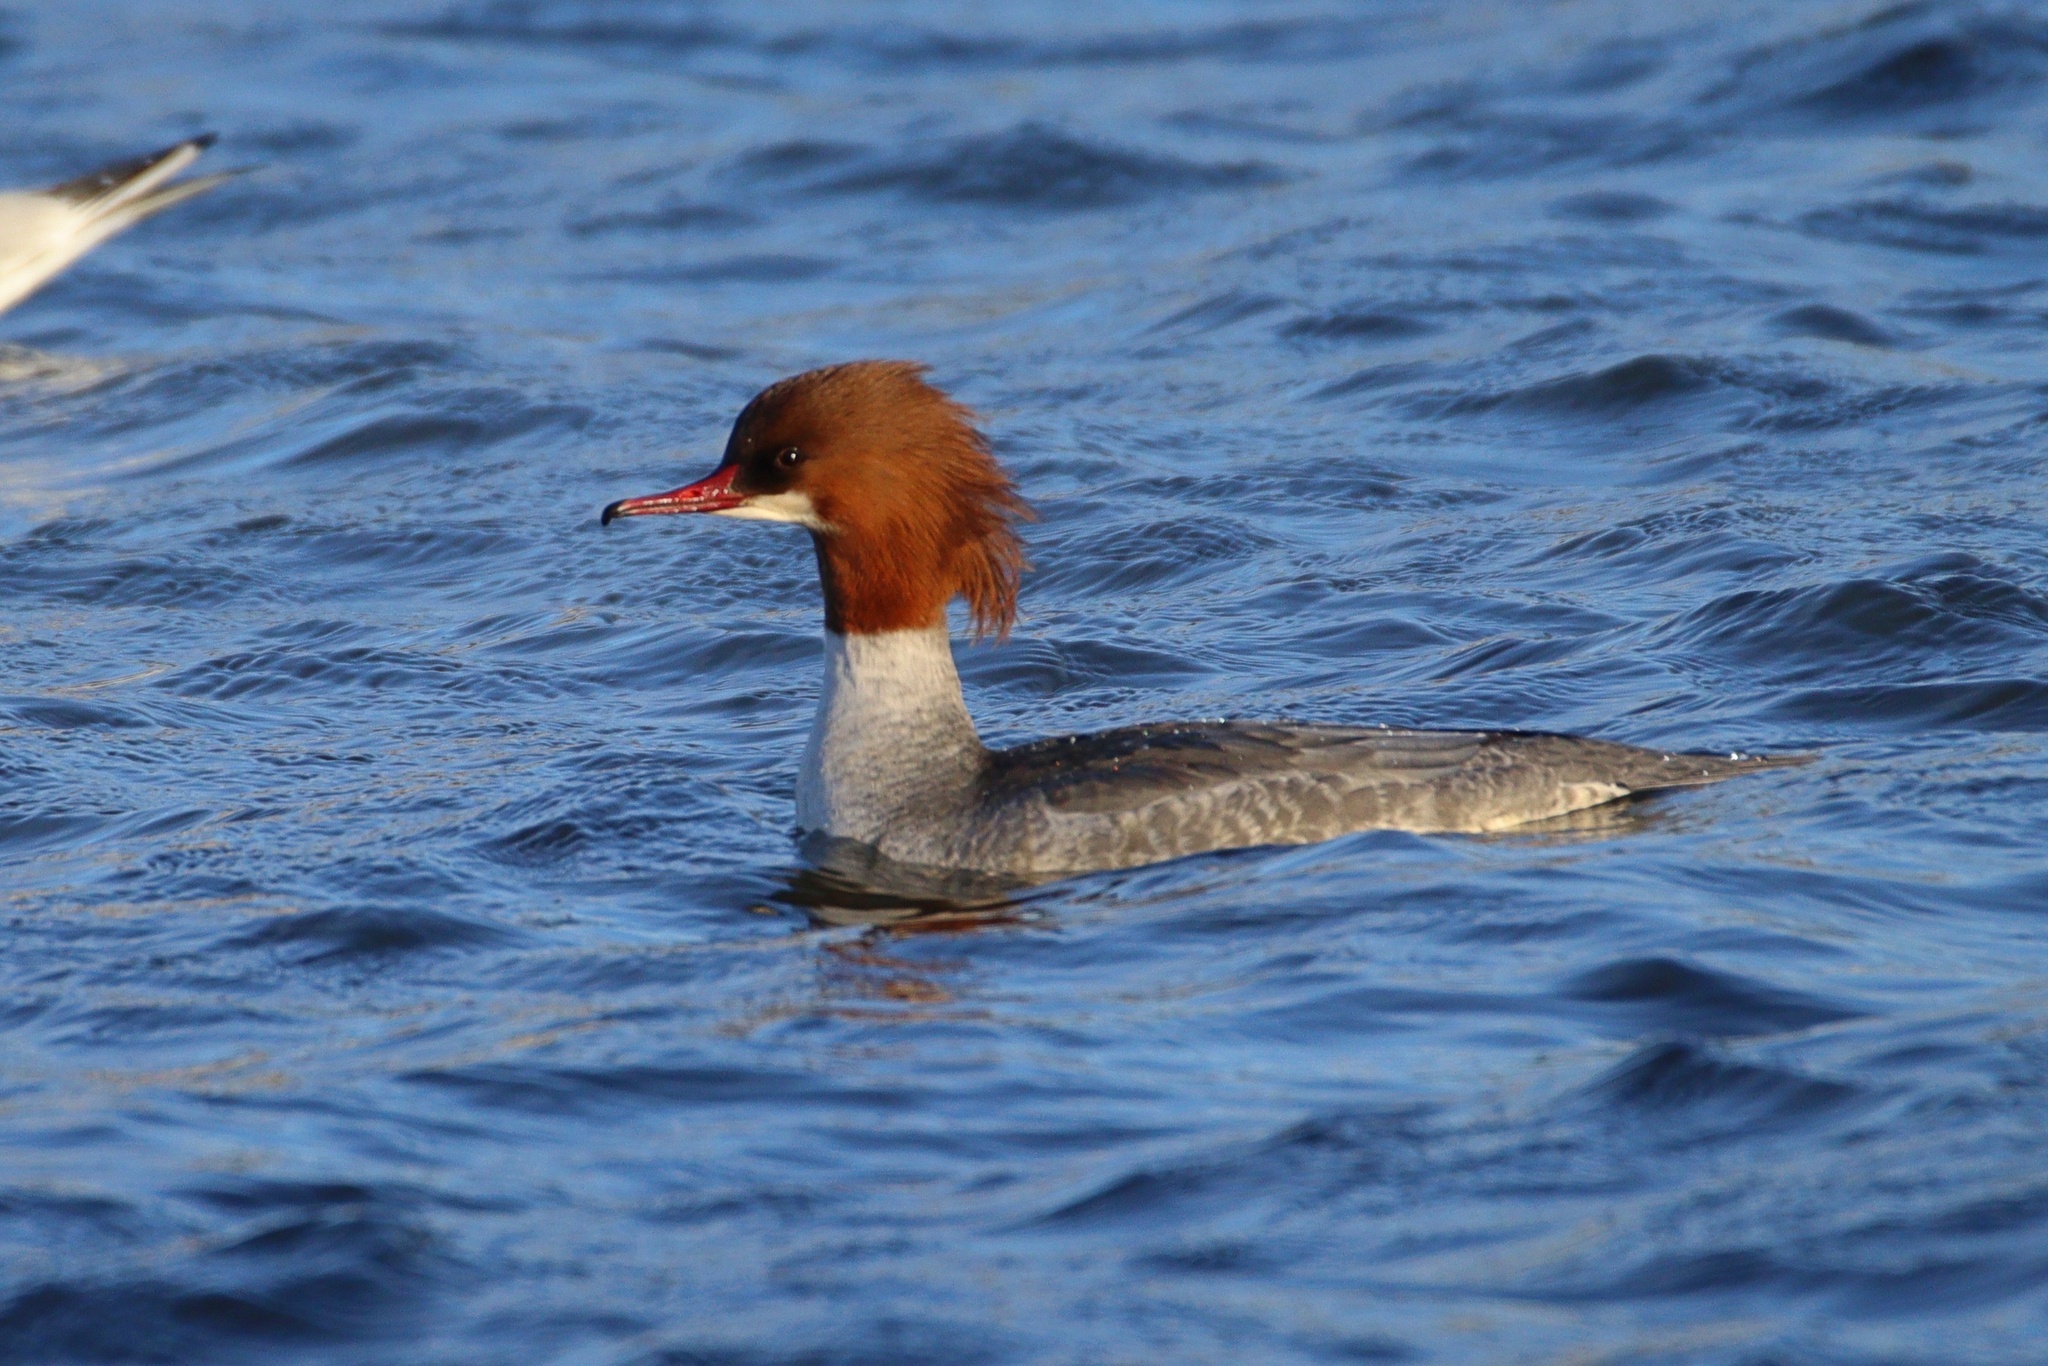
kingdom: Animalia
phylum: Chordata
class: Aves
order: Anseriformes
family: Anatidae
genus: Mergus
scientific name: Mergus merganser
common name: Common merganser
